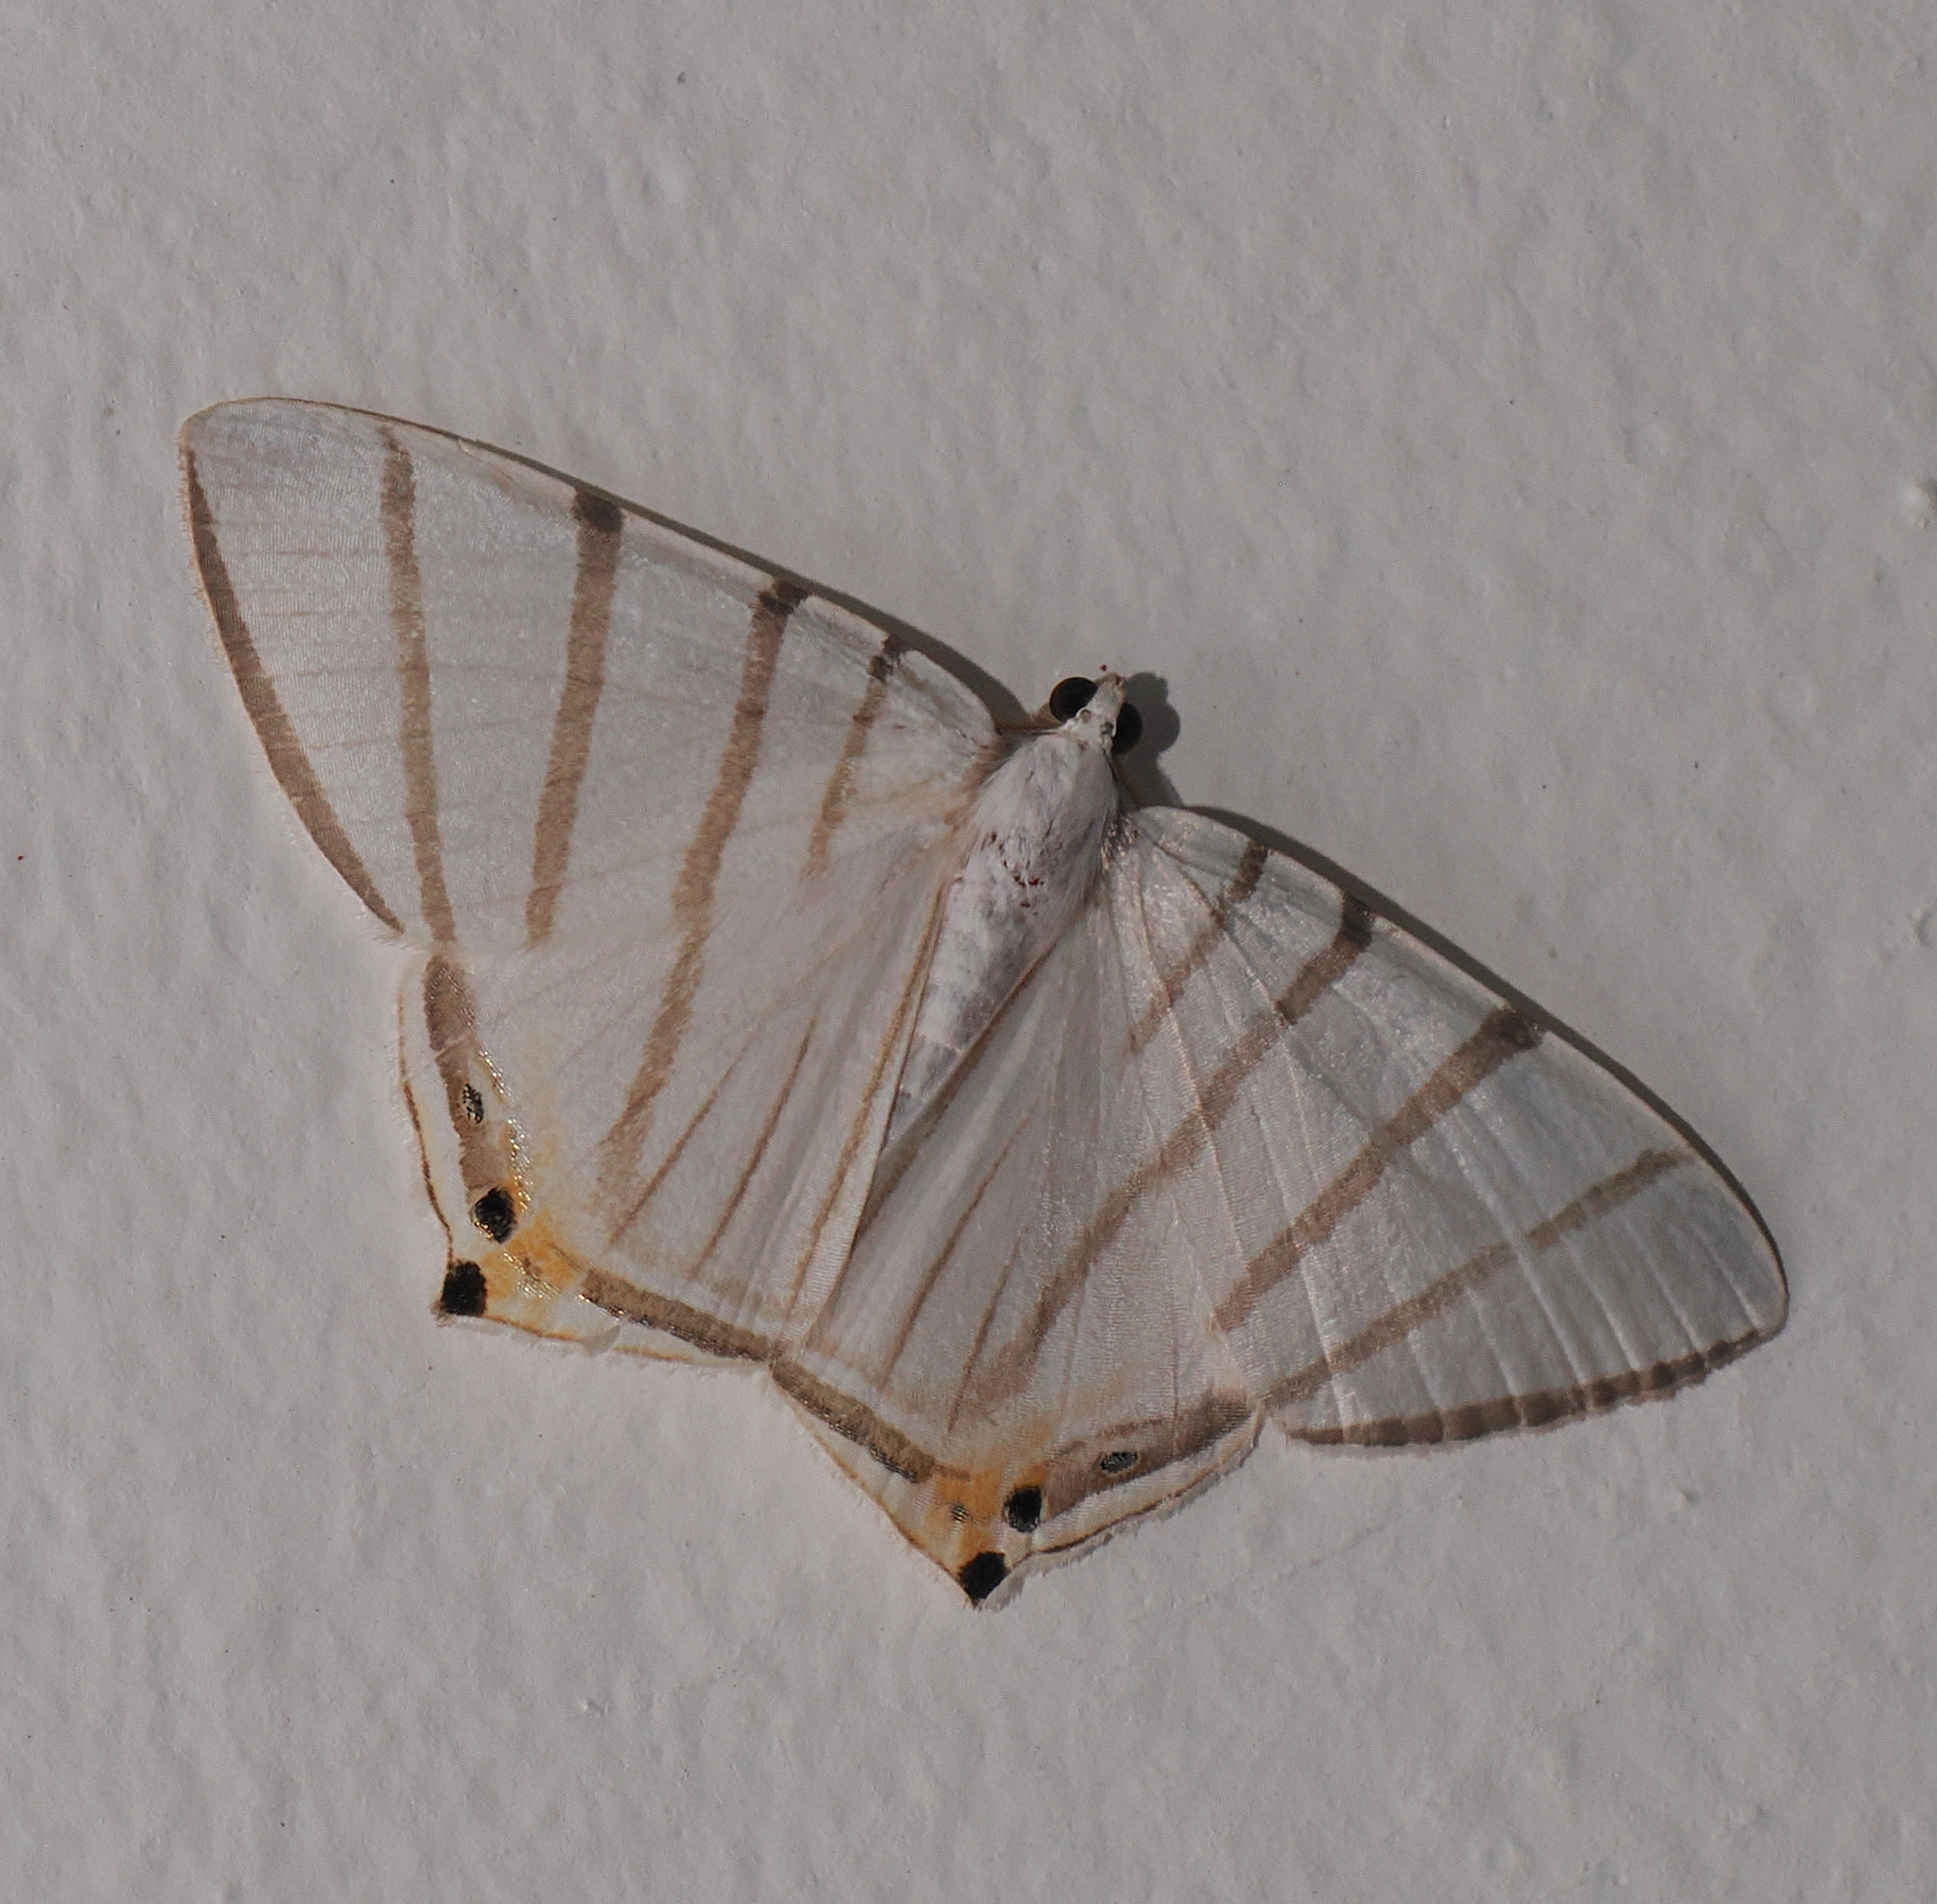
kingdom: Animalia
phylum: Arthropoda
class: Insecta
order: Lepidoptera
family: Geometridae
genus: Opisthoxia
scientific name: Opisthoxia metargyria
